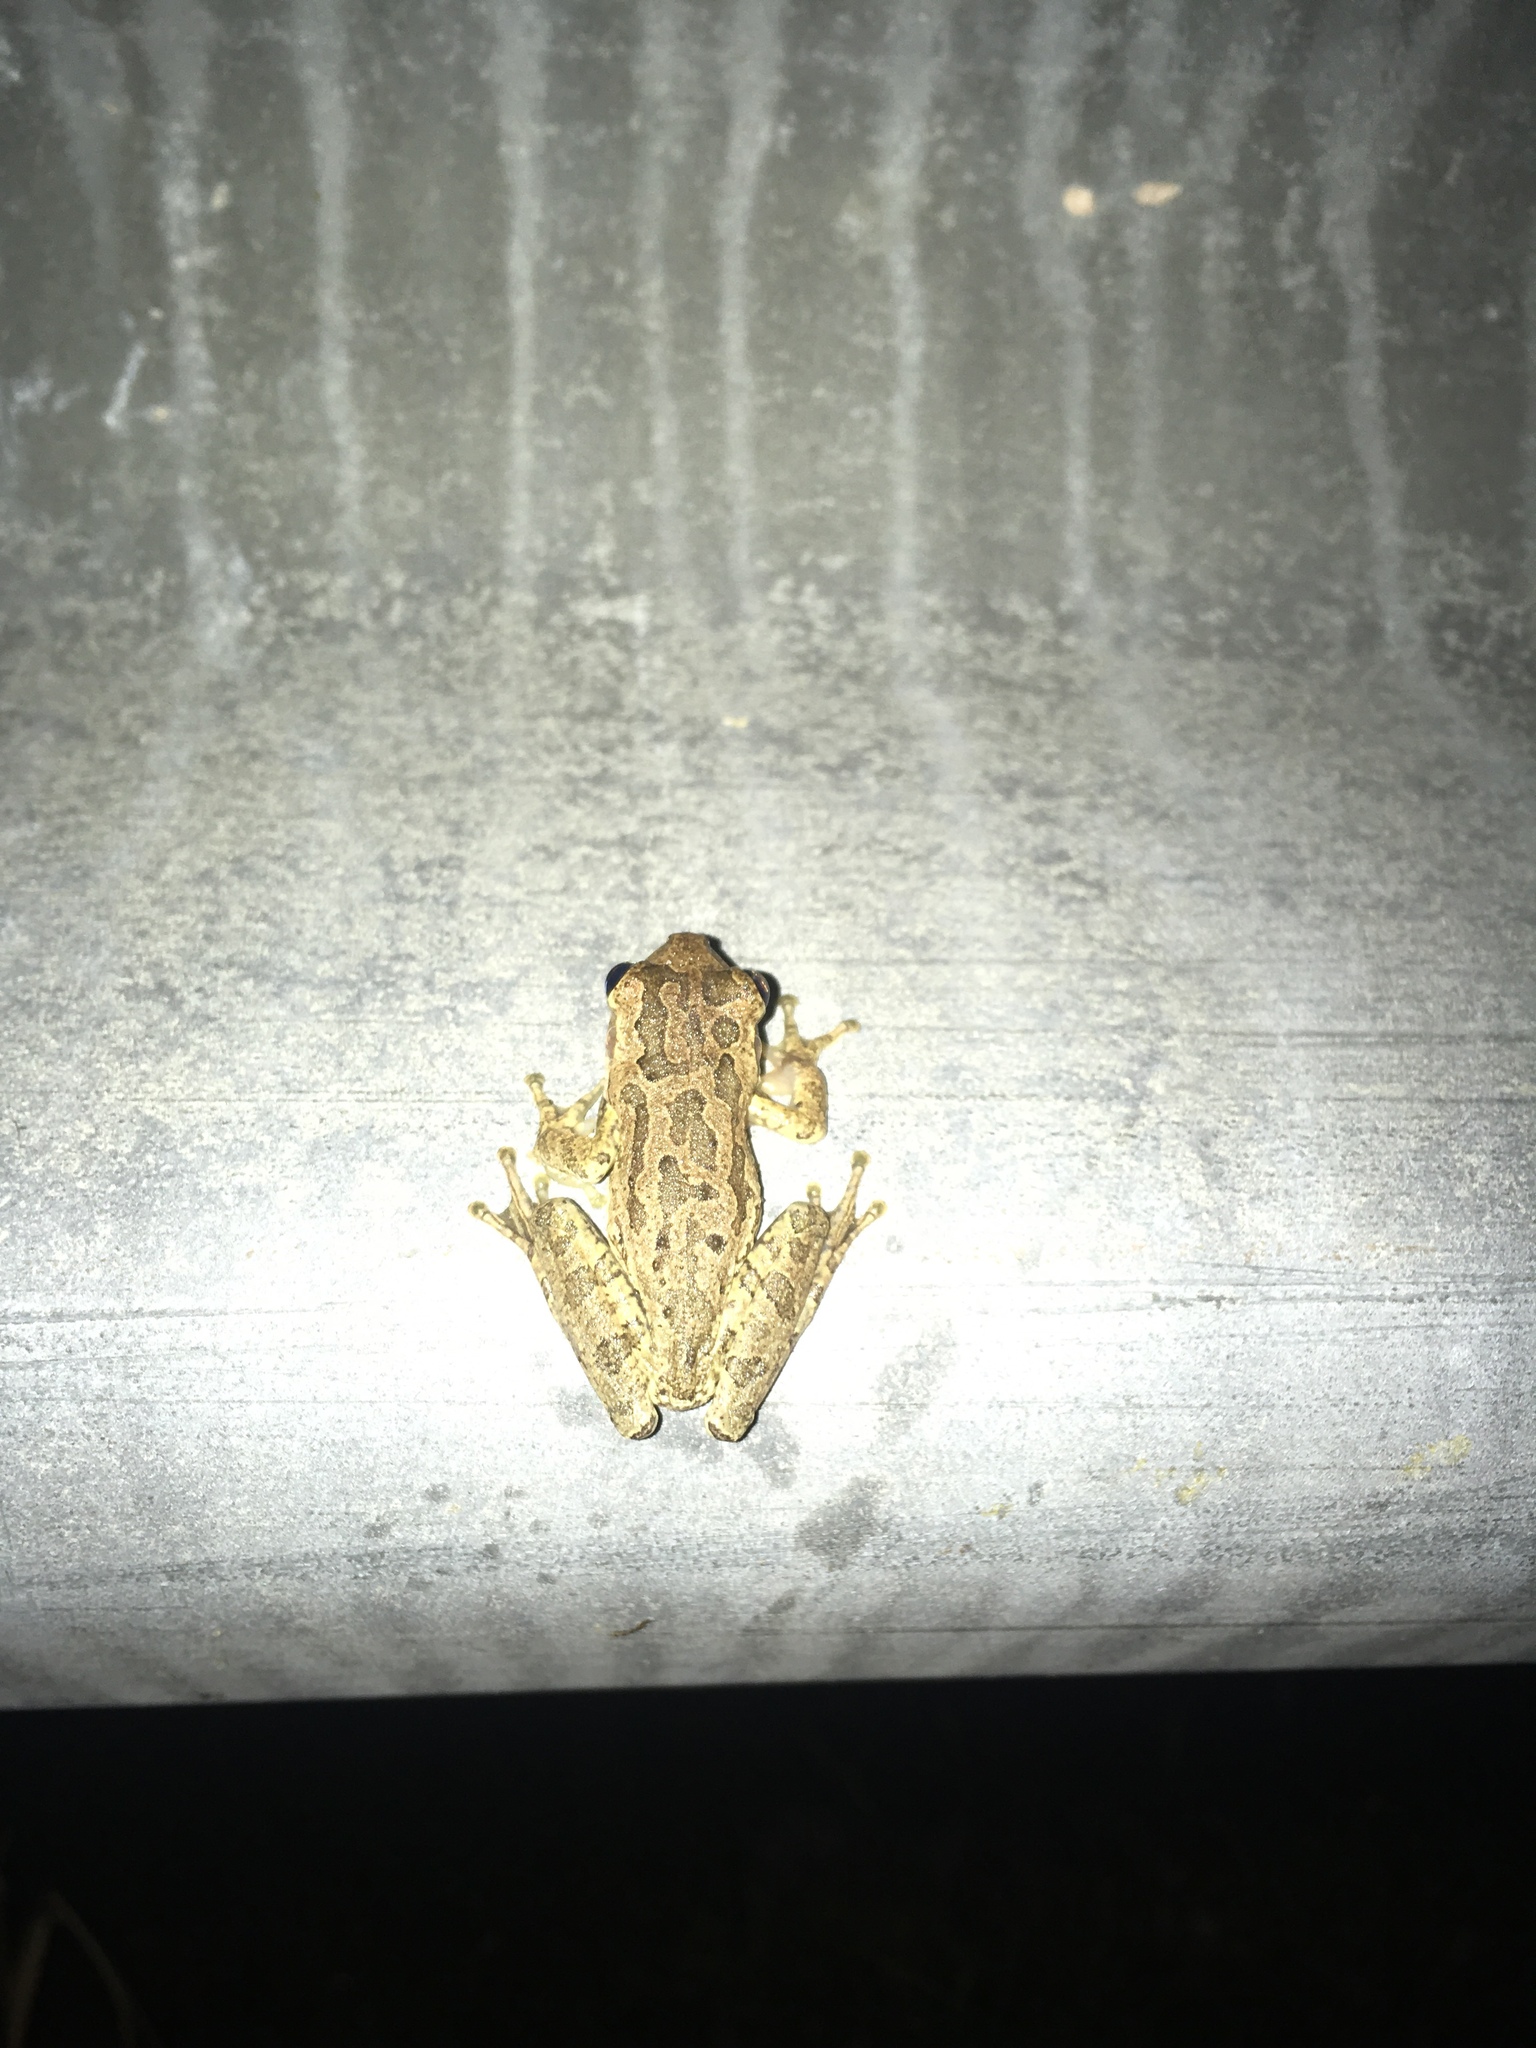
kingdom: Animalia
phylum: Chordata
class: Amphibia
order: Anura
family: Hylidae
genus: Osteopilus
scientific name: Osteopilus septentrionalis
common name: Cuban treefrog
